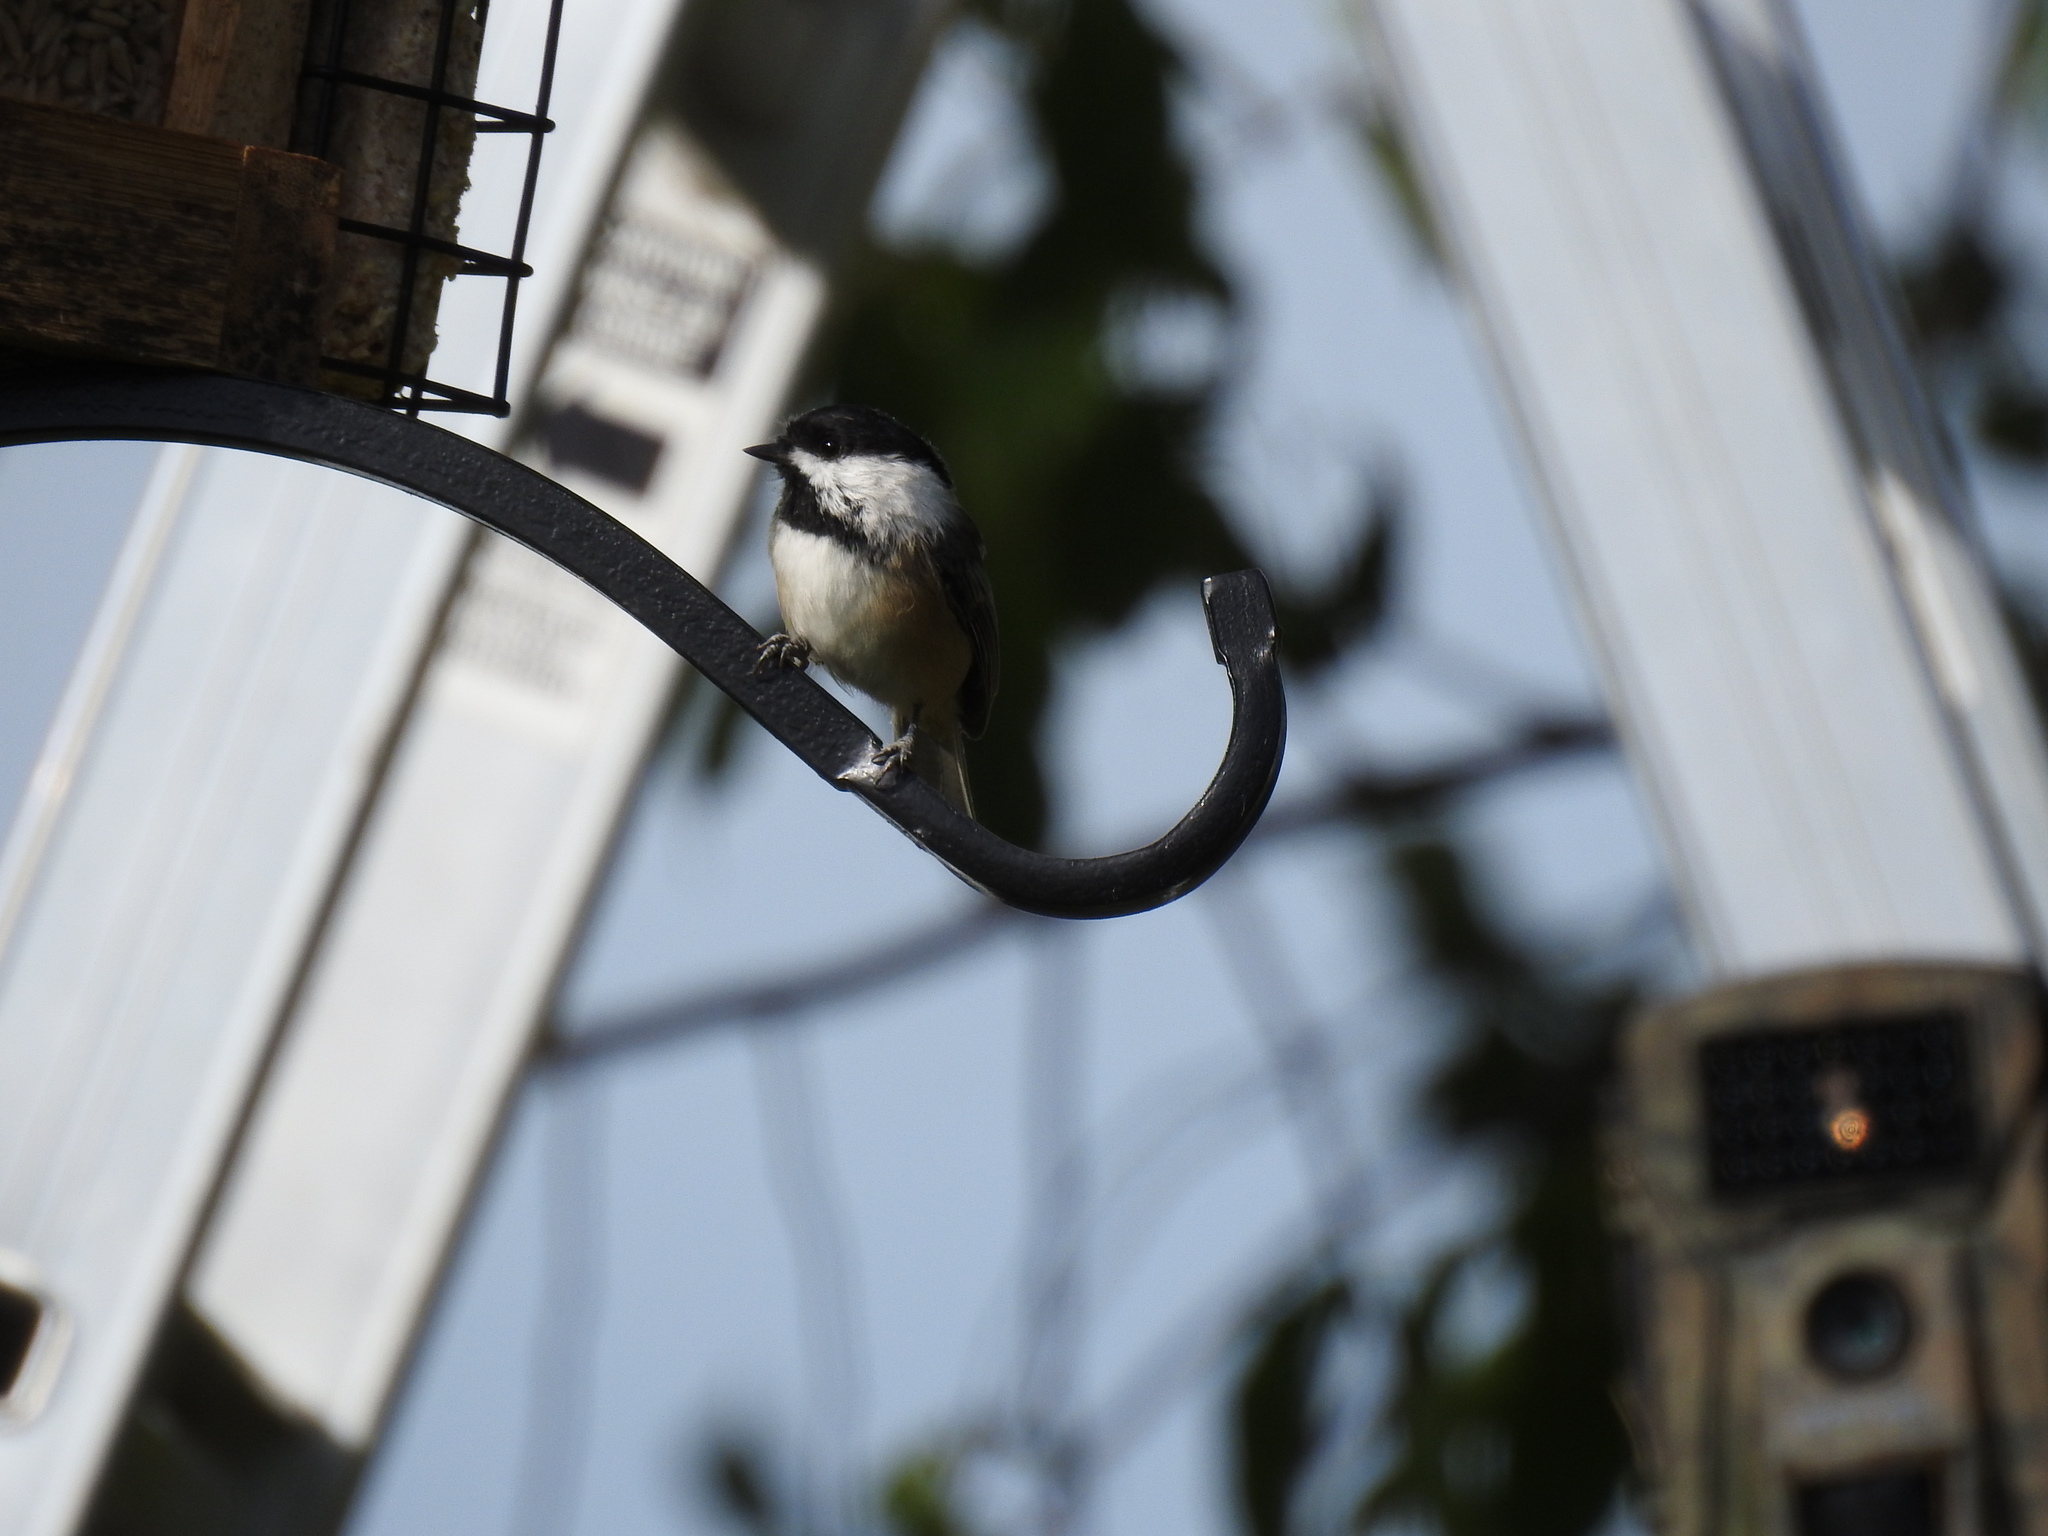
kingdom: Animalia
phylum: Chordata
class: Aves
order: Passeriformes
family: Paridae
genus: Poecile
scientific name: Poecile atricapillus
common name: Black-capped chickadee
